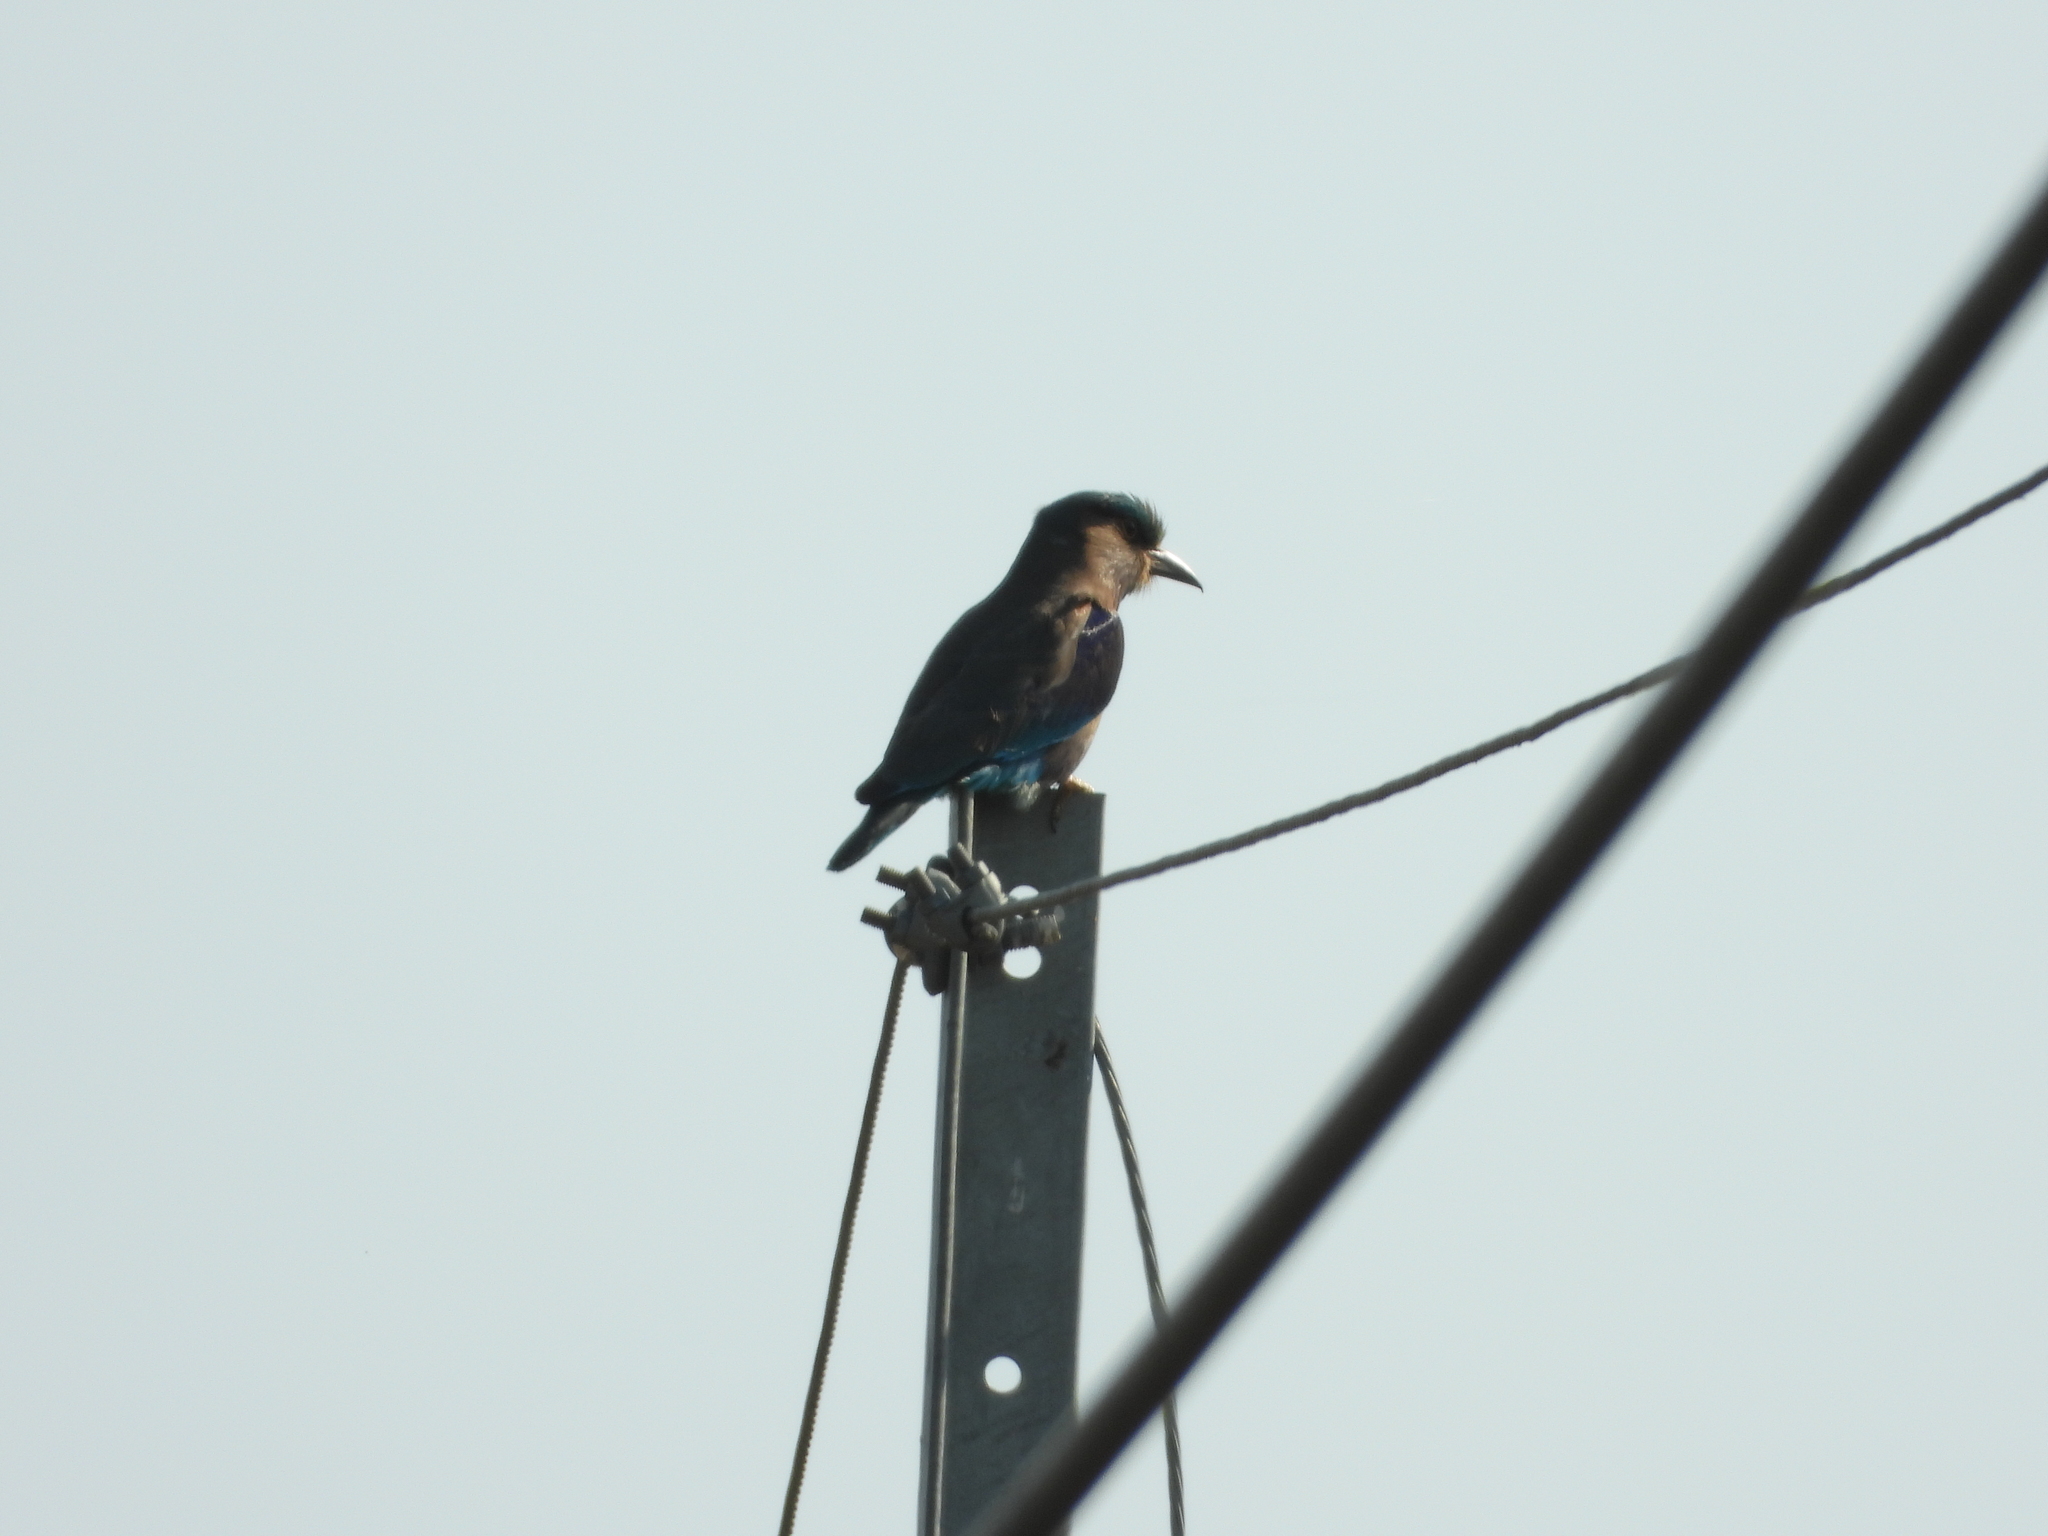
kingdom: Animalia
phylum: Chordata
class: Aves
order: Coraciiformes
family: Coraciidae
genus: Coracias
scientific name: Coracias affinis
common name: Indochinese roller
